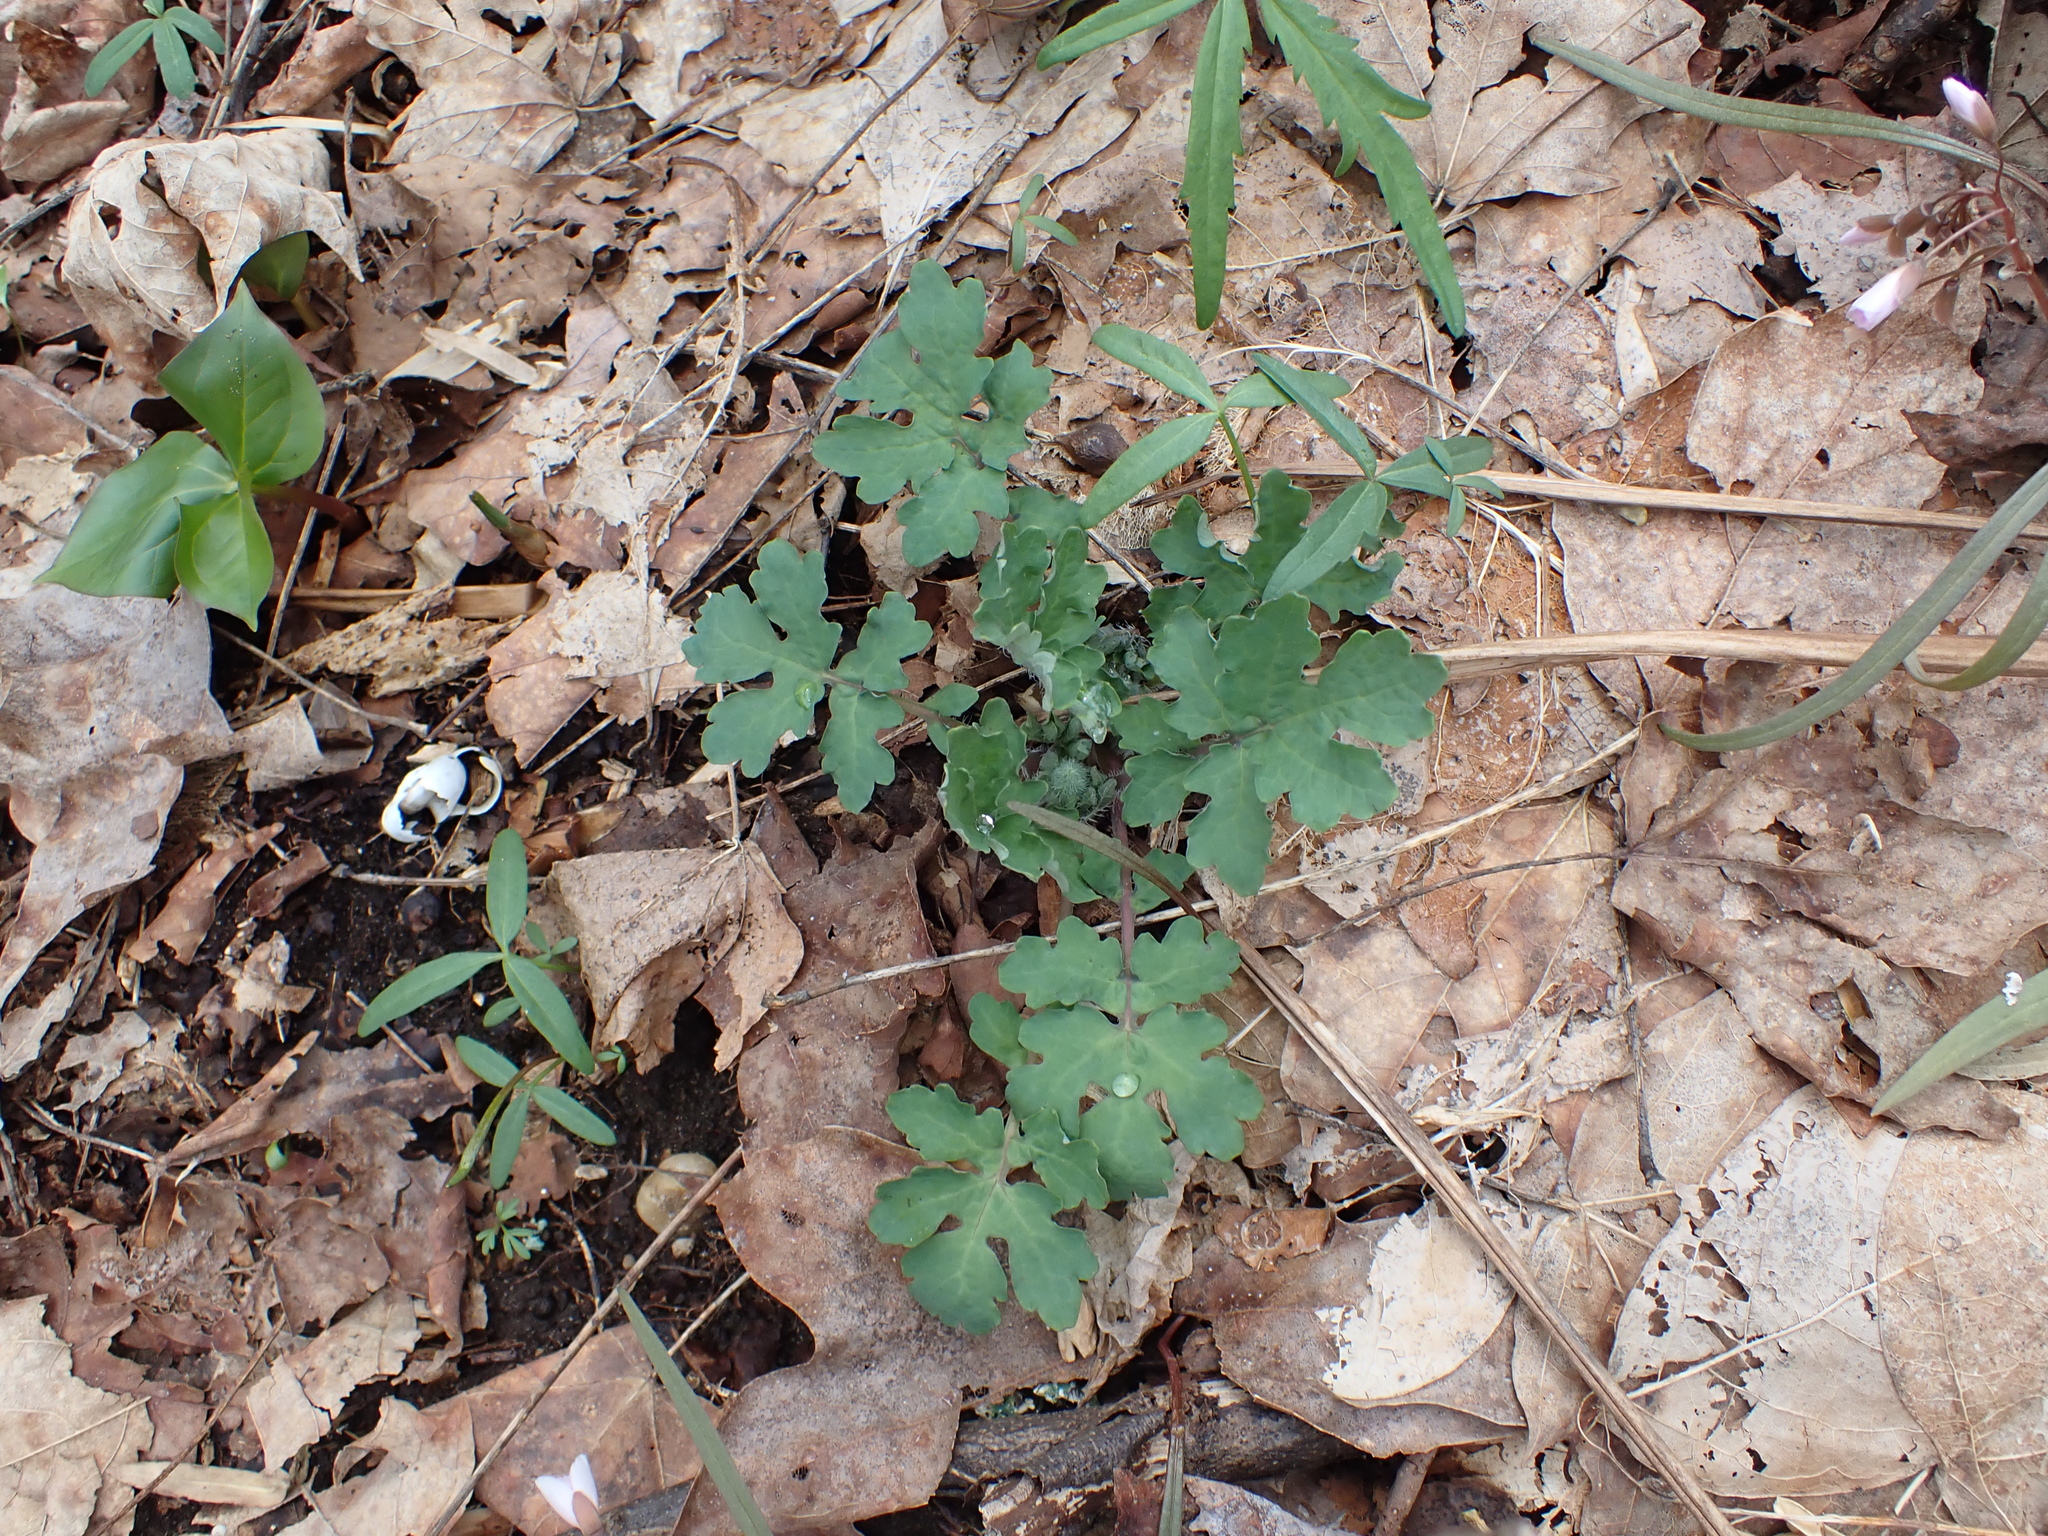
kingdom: Plantae
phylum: Tracheophyta
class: Magnoliopsida
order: Ranunculales
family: Papaveraceae
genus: Stylophorum
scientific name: Stylophorum diphyllum
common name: Celandine poppy
